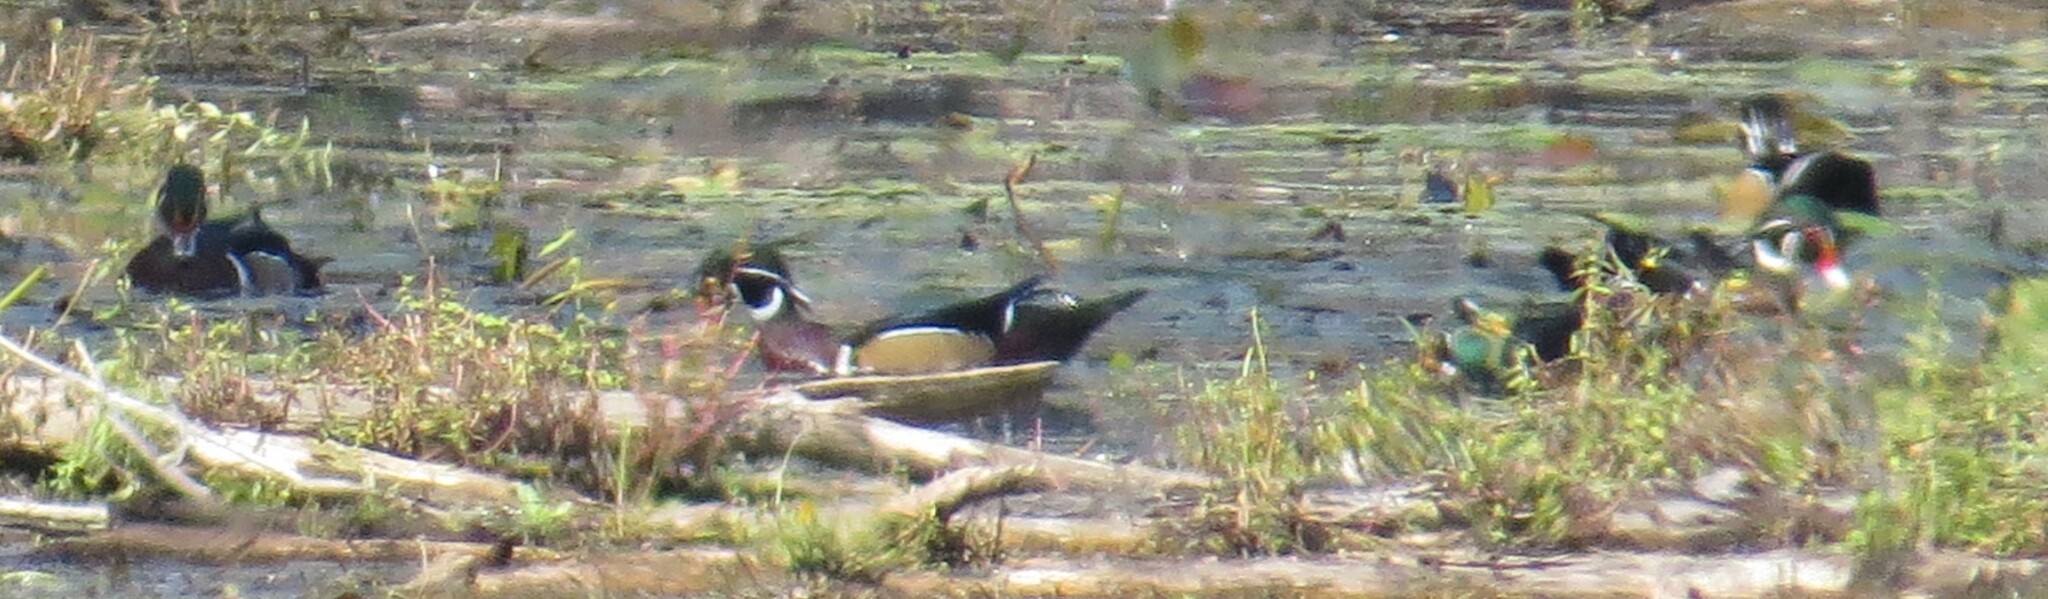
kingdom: Animalia
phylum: Chordata
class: Aves
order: Anseriformes
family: Anatidae
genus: Aix
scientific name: Aix sponsa
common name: Wood duck
